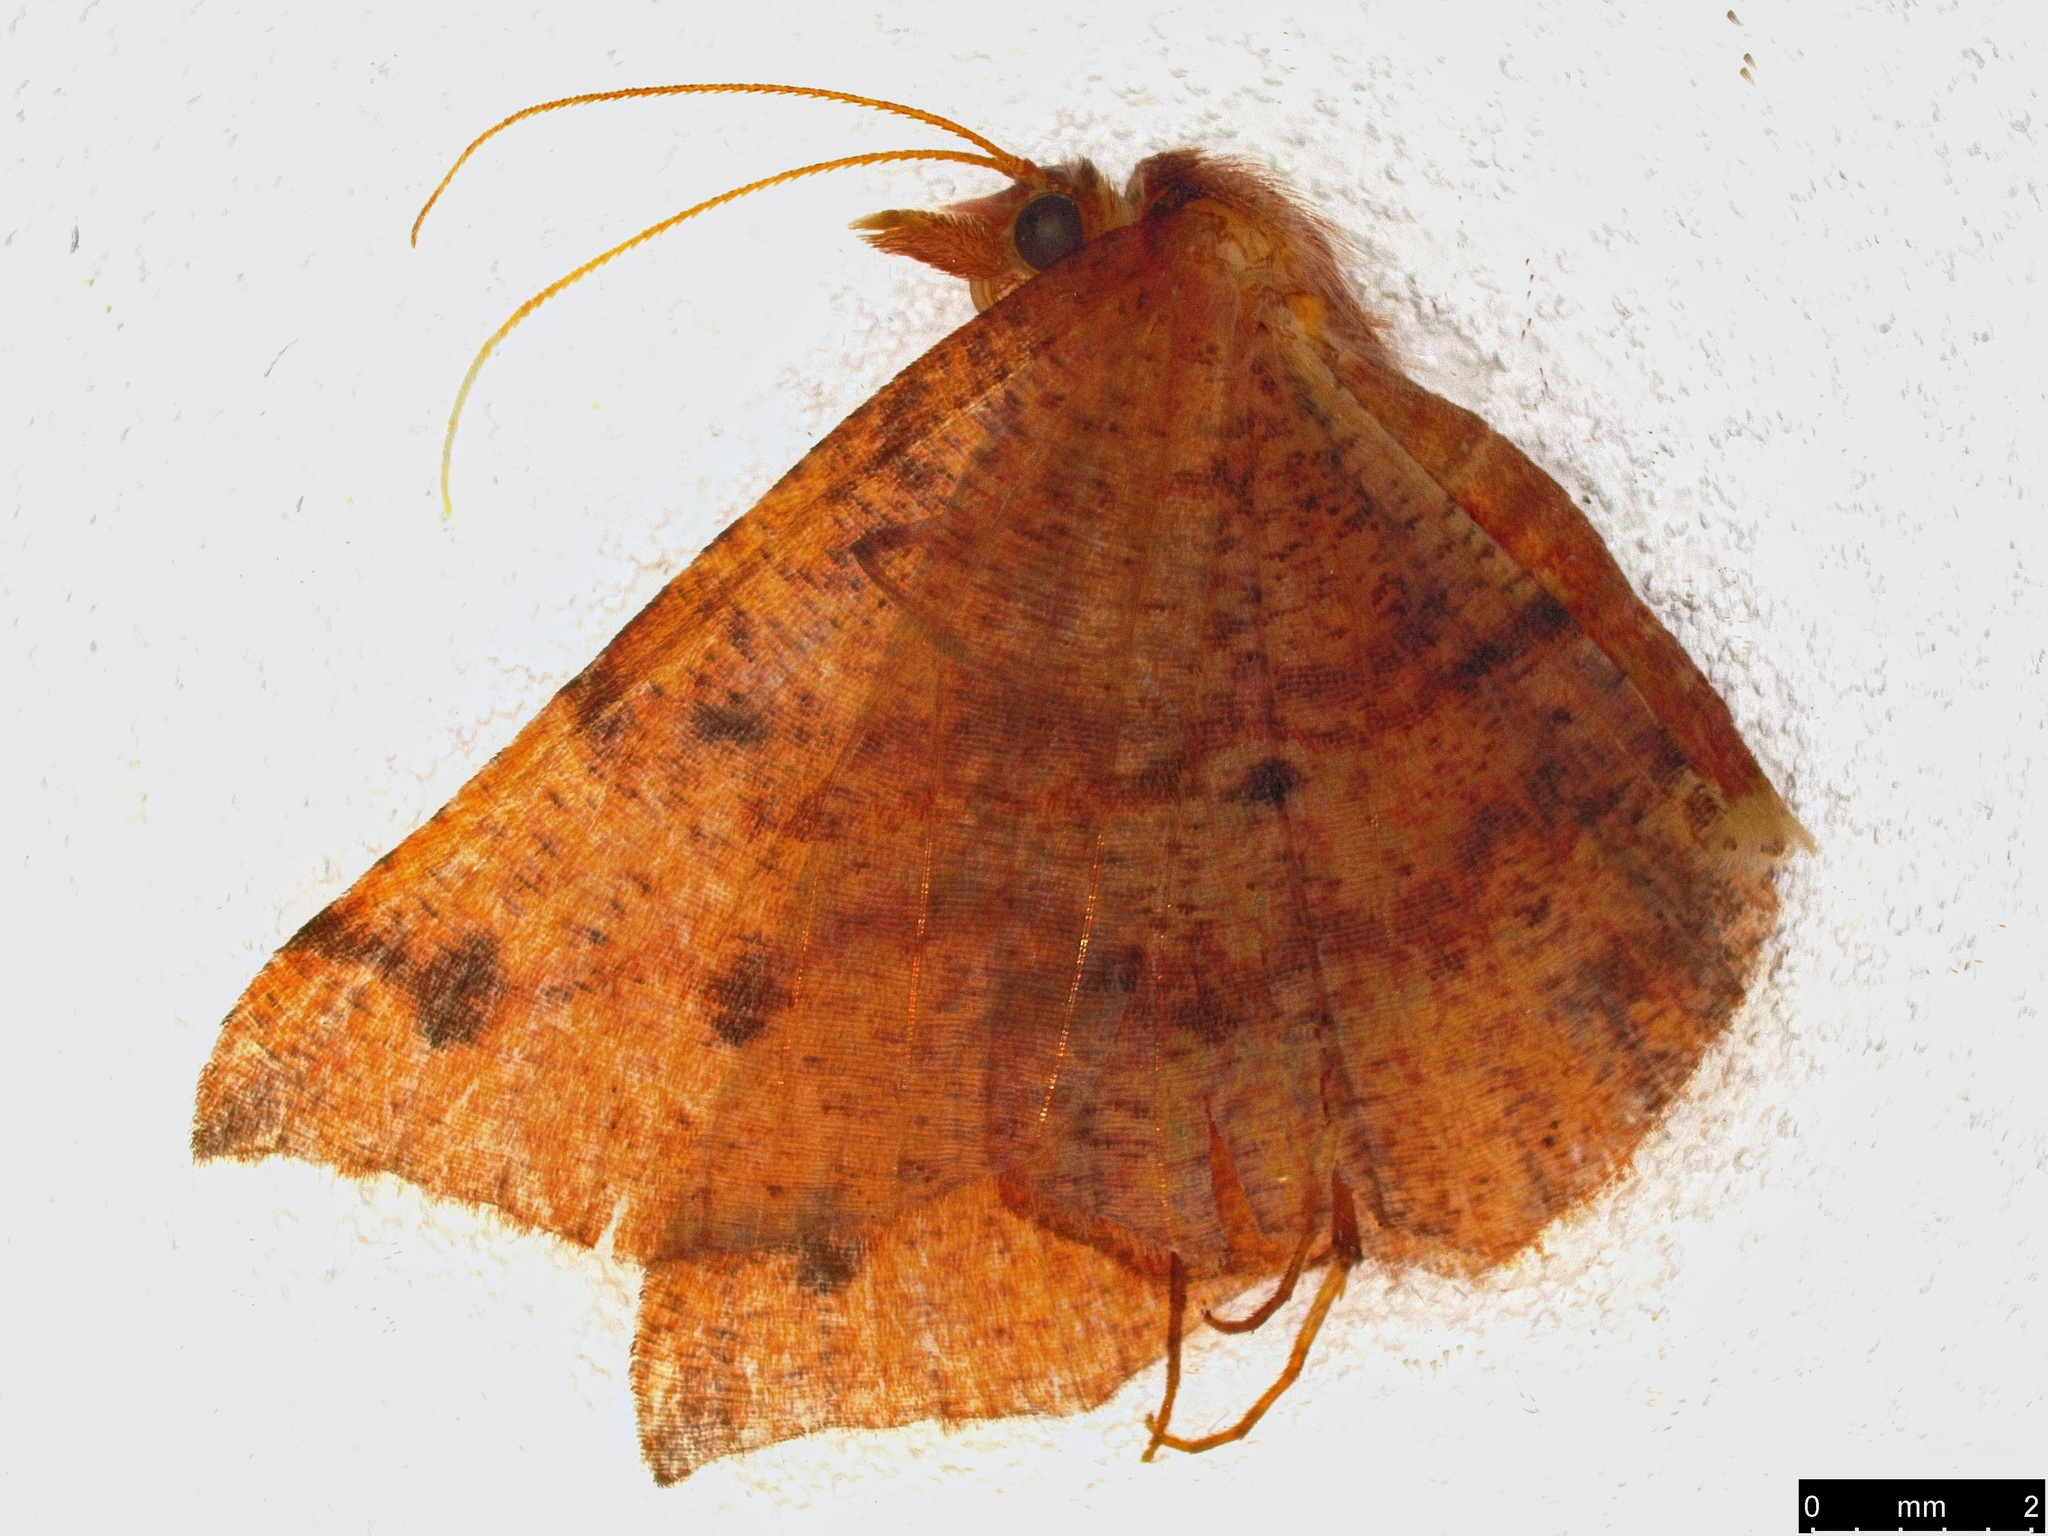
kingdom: Animalia
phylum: Arthropoda
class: Insecta
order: Lepidoptera
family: Geometridae
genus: Rhinodia
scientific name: Rhinodia rostraria
